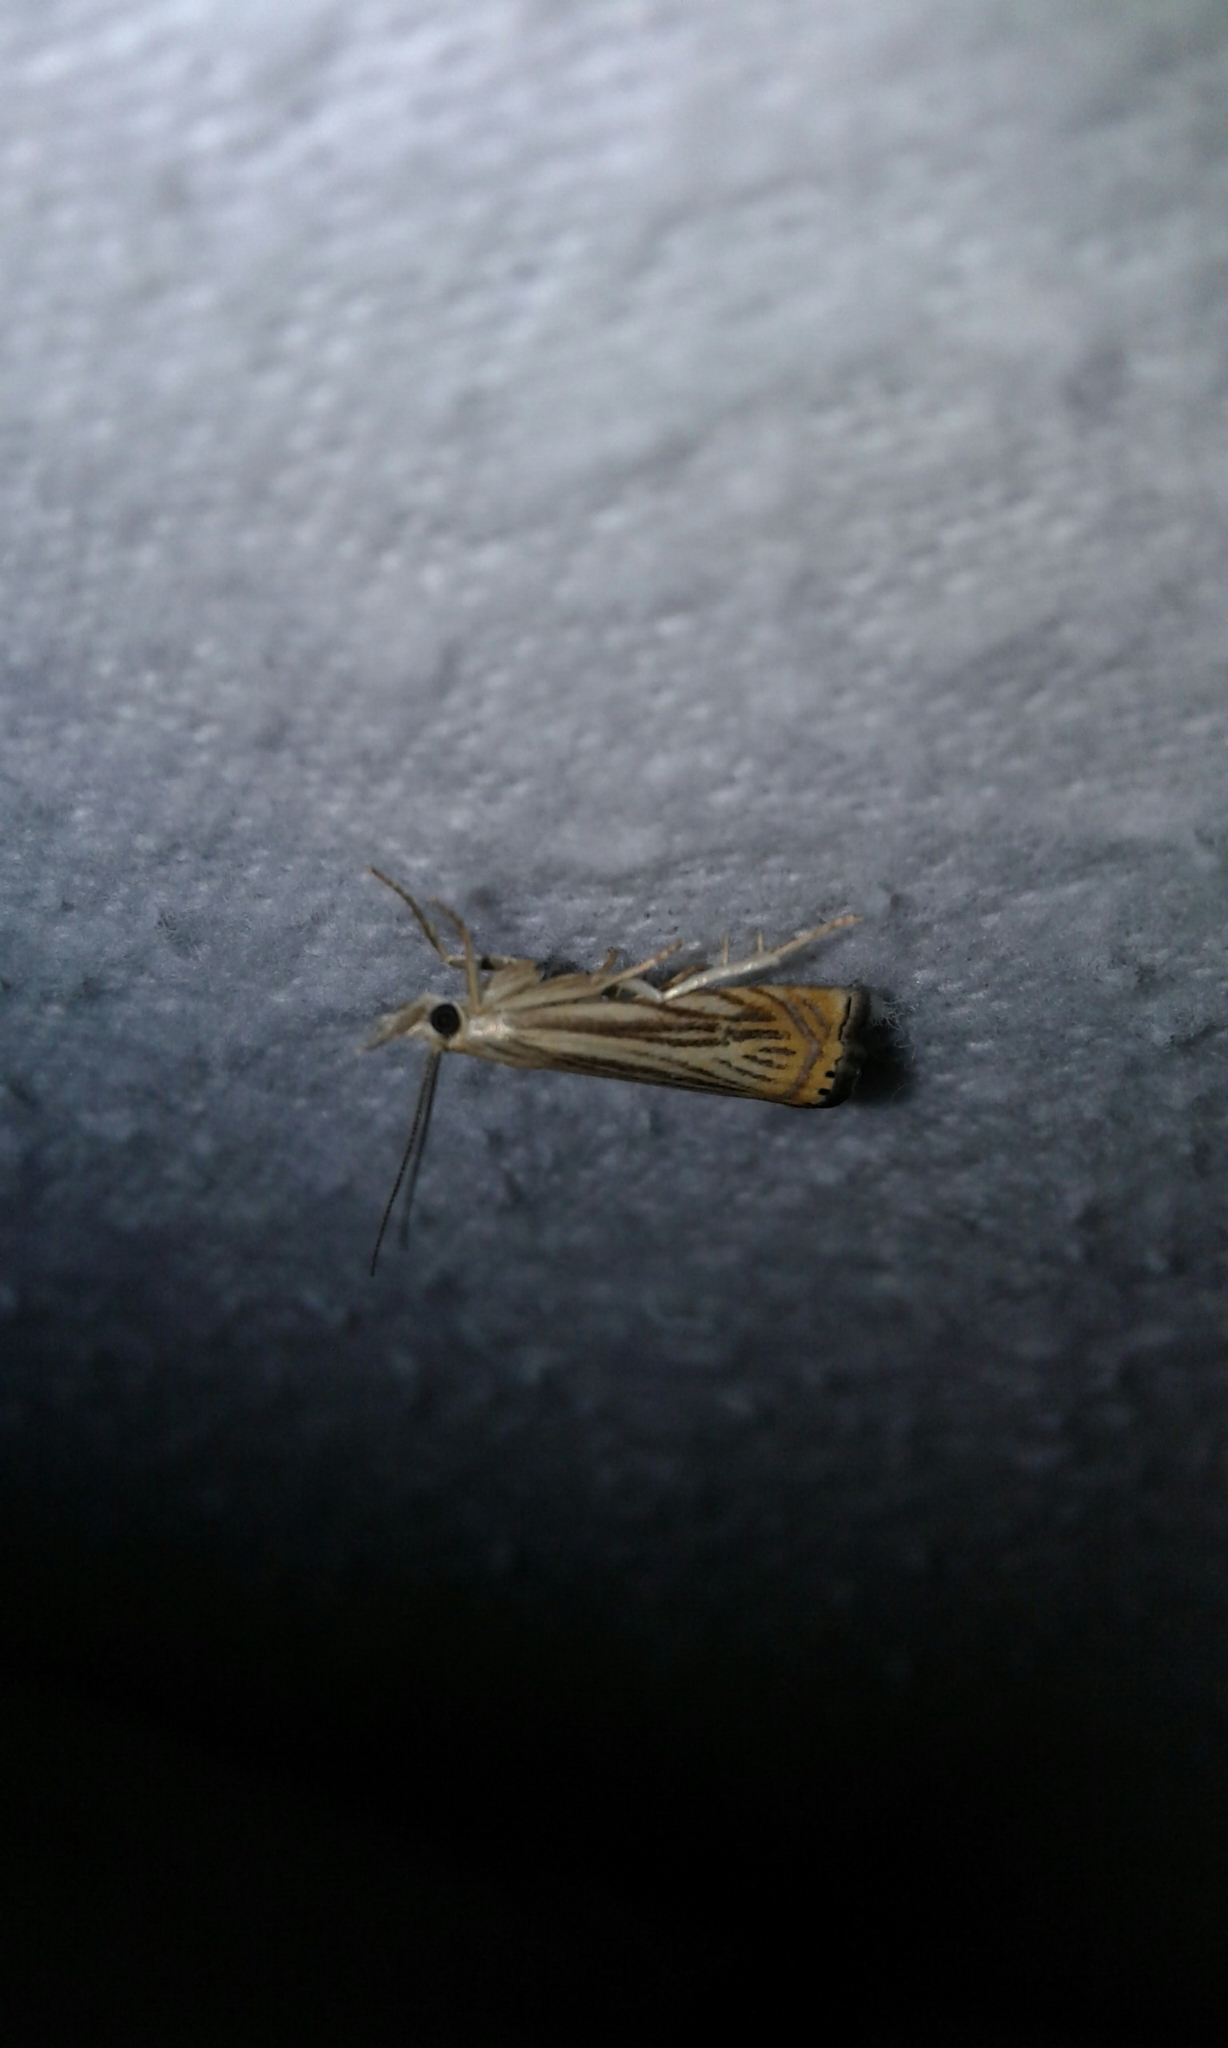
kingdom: Animalia
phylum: Arthropoda
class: Insecta
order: Lepidoptera
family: Crambidae
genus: Chrysoteuchia
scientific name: Chrysoteuchia topiarius
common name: Topiary grass-veneer
